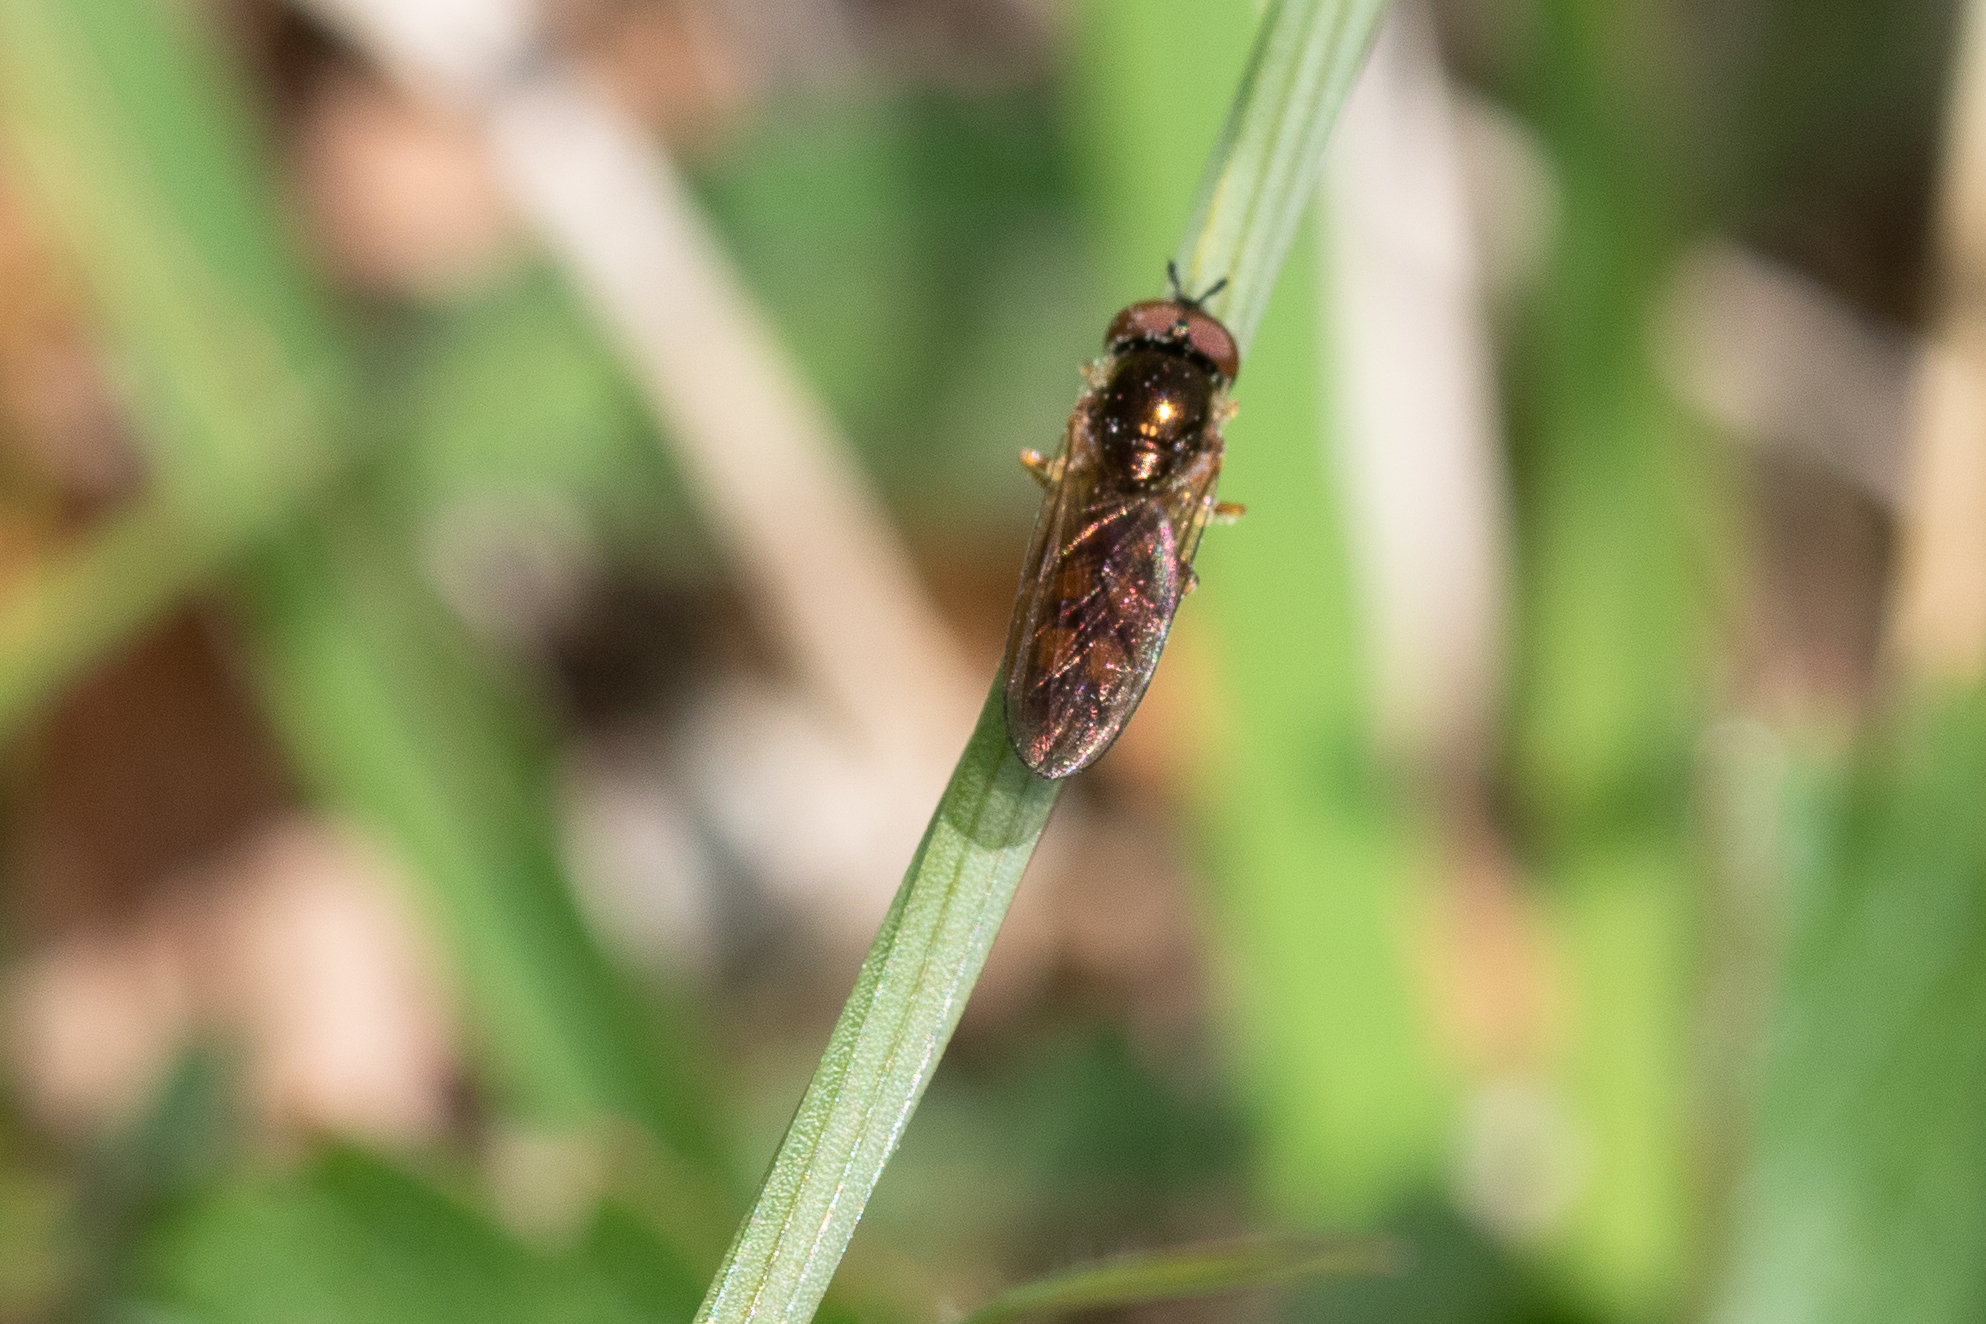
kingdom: Animalia
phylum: Arthropoda
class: Insecta
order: Diptera
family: Syrphidae
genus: Melanostoma
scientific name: Melanostoma mellina
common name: Hover fly
